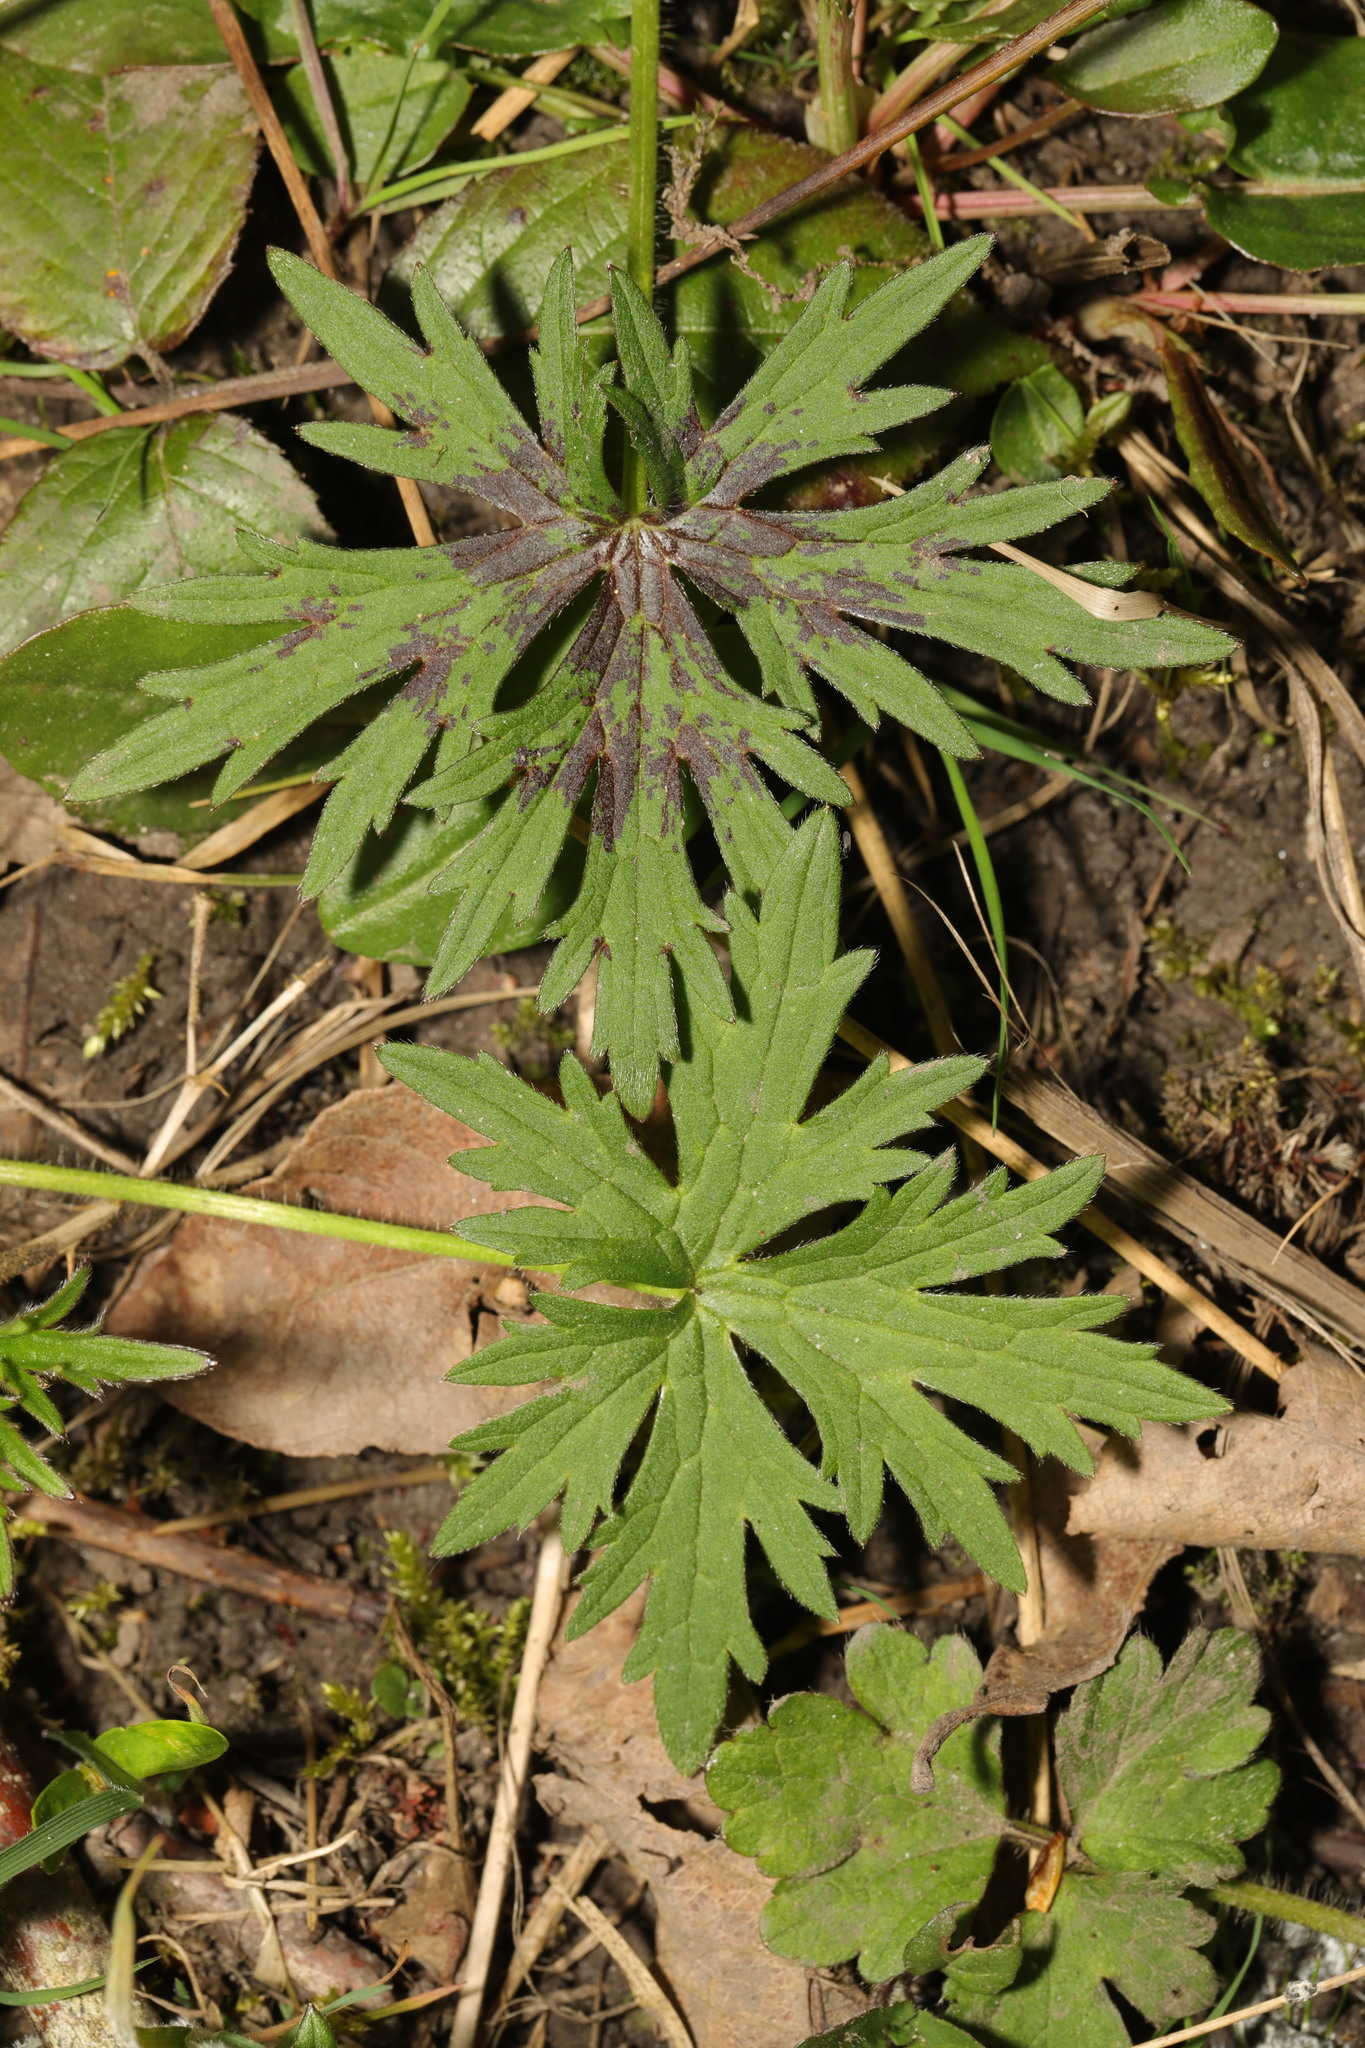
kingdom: Plantae
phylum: Tracheophyta
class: Magnoliopsida
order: Ranunculales
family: Ranunculaceae
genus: Ranunculus
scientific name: Ranunculus acris
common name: Meadow buttercup
